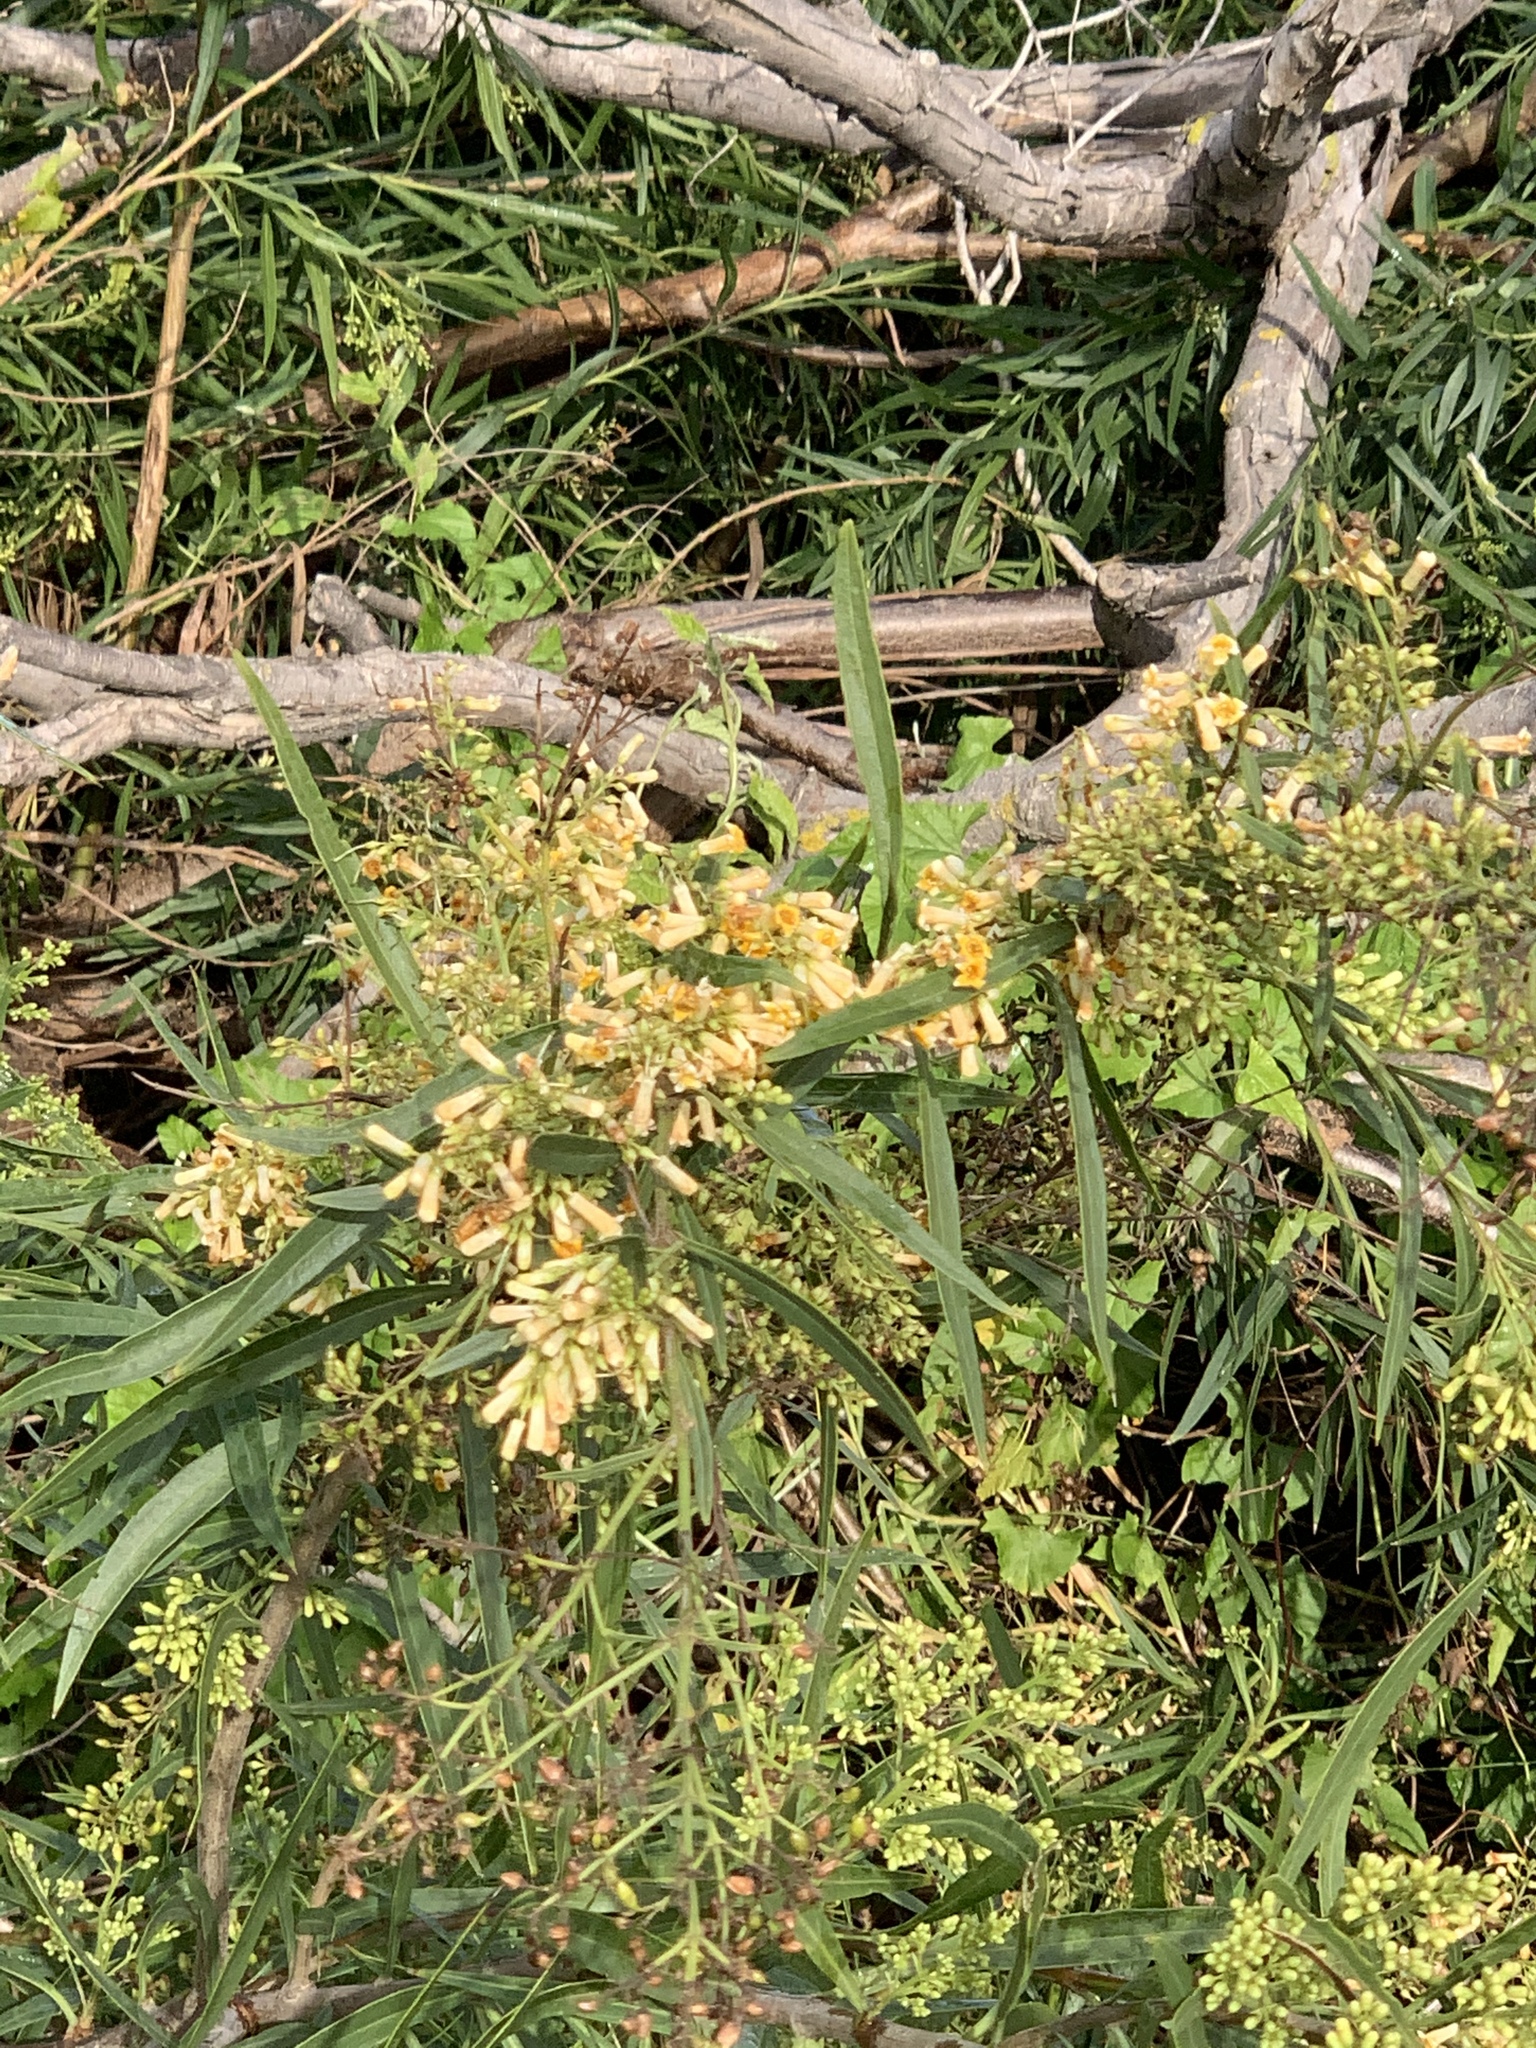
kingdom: Plantae
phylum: Tracheophyta
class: Magnoliopsida
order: Lamiales
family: Scrophulariaceae
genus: Freylinia
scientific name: Freylinia lanceolata
